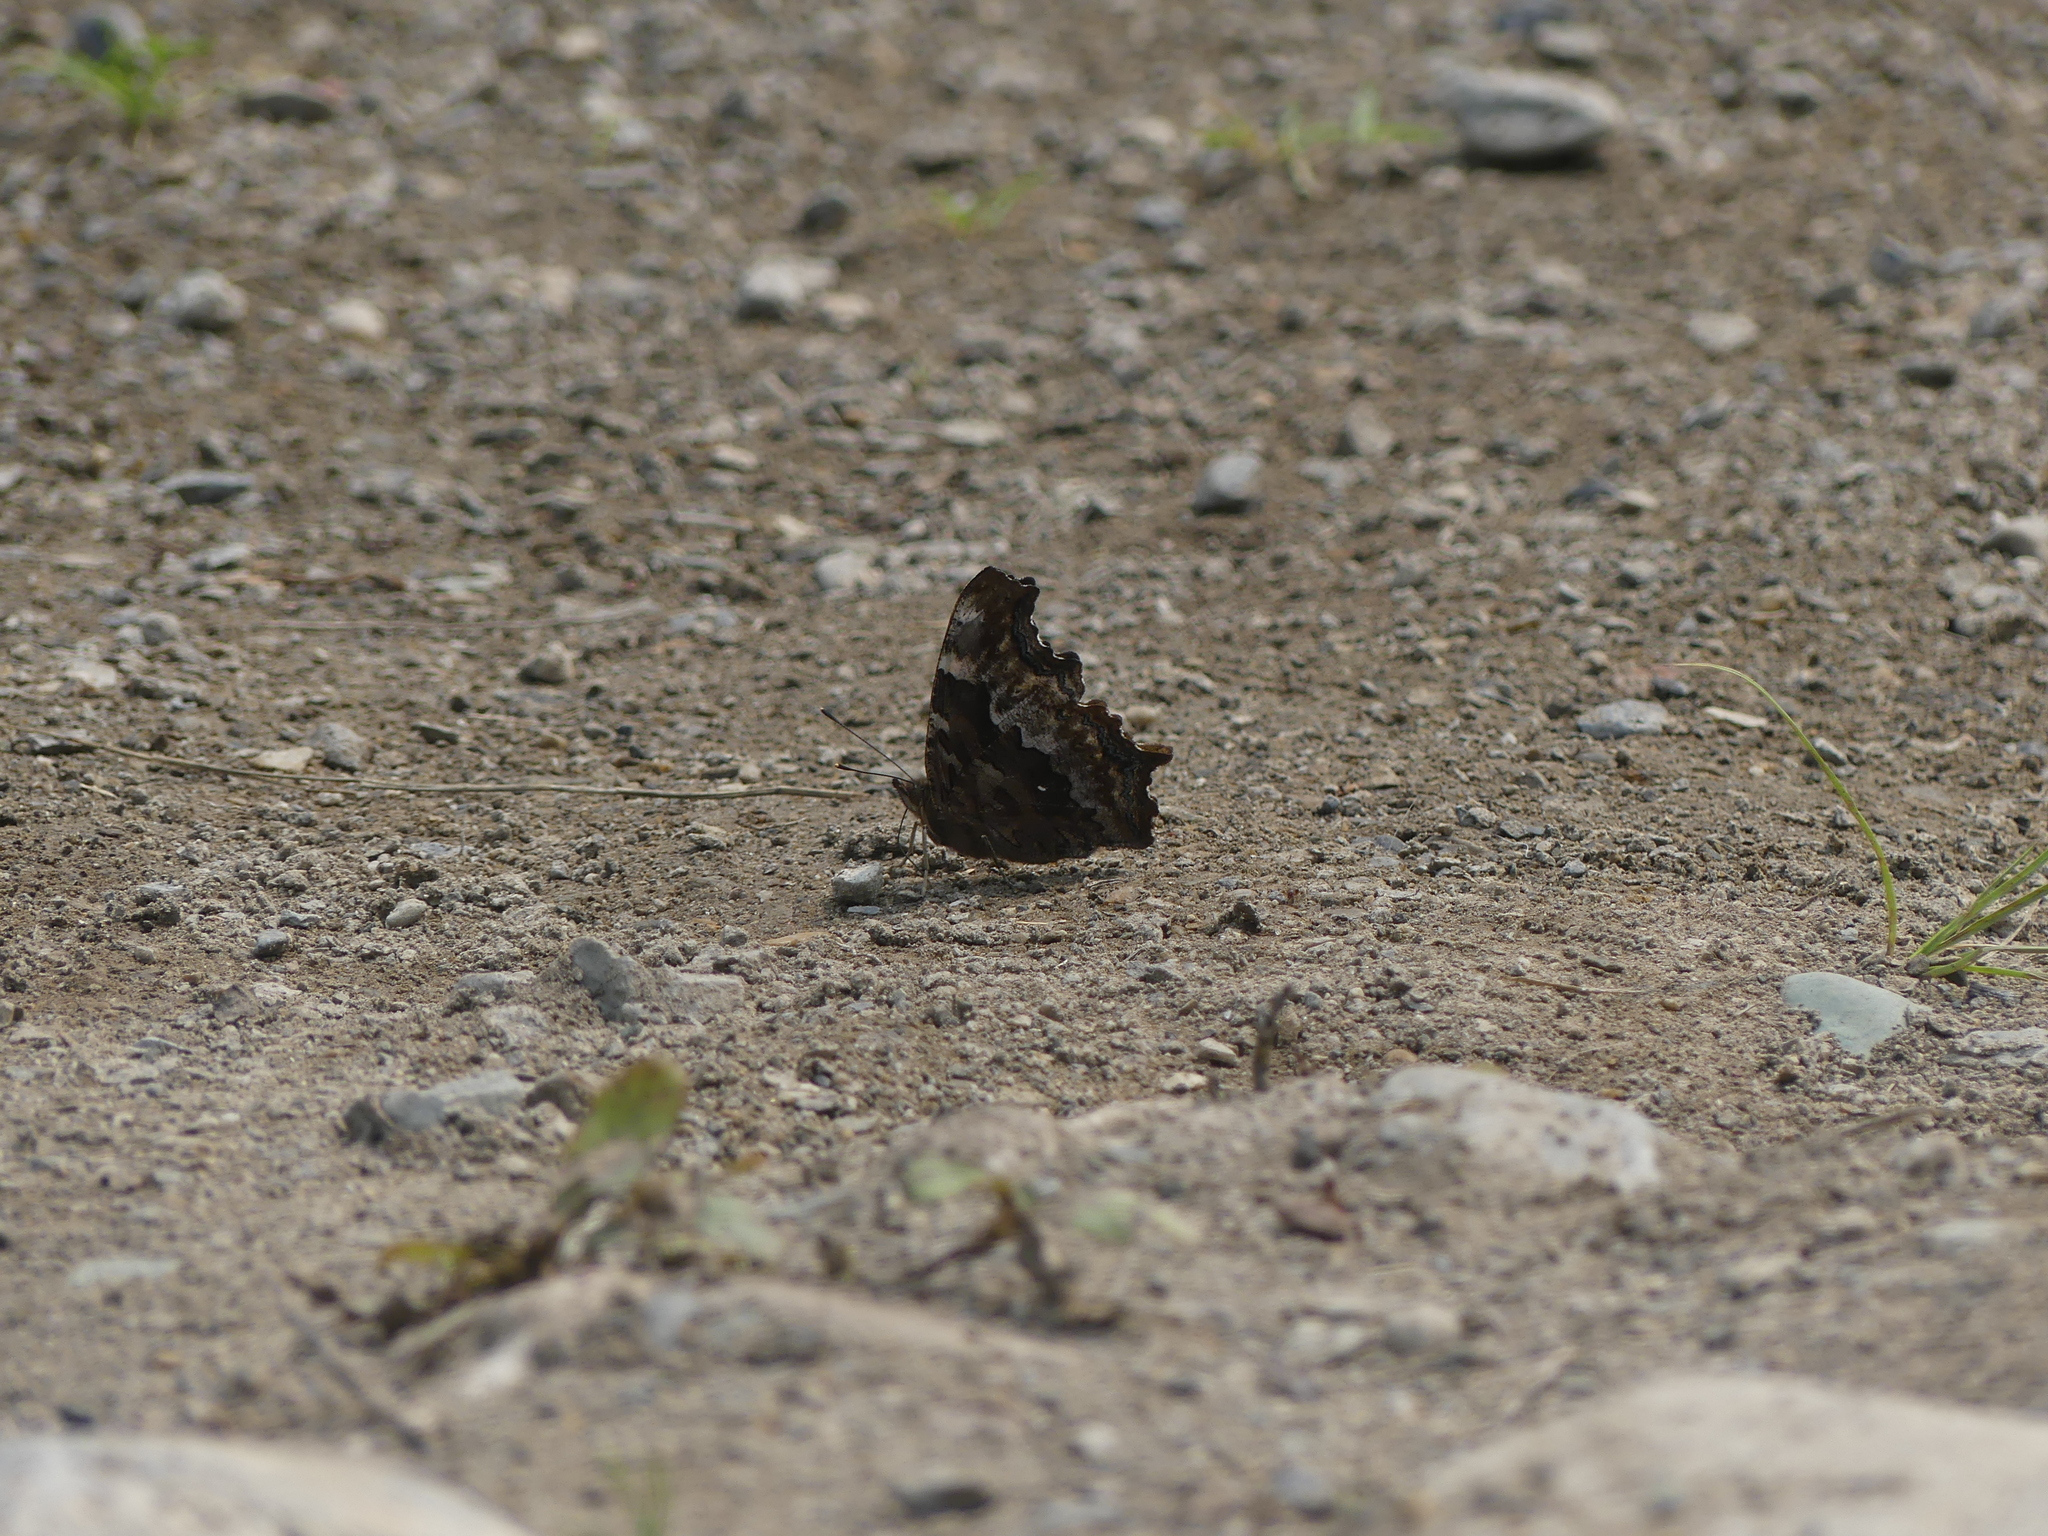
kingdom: Animalia
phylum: Arthropoda
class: Insecta
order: Lepidoptera
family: Nymphalidae
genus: Polygonia
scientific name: Polygonia vaualbum
